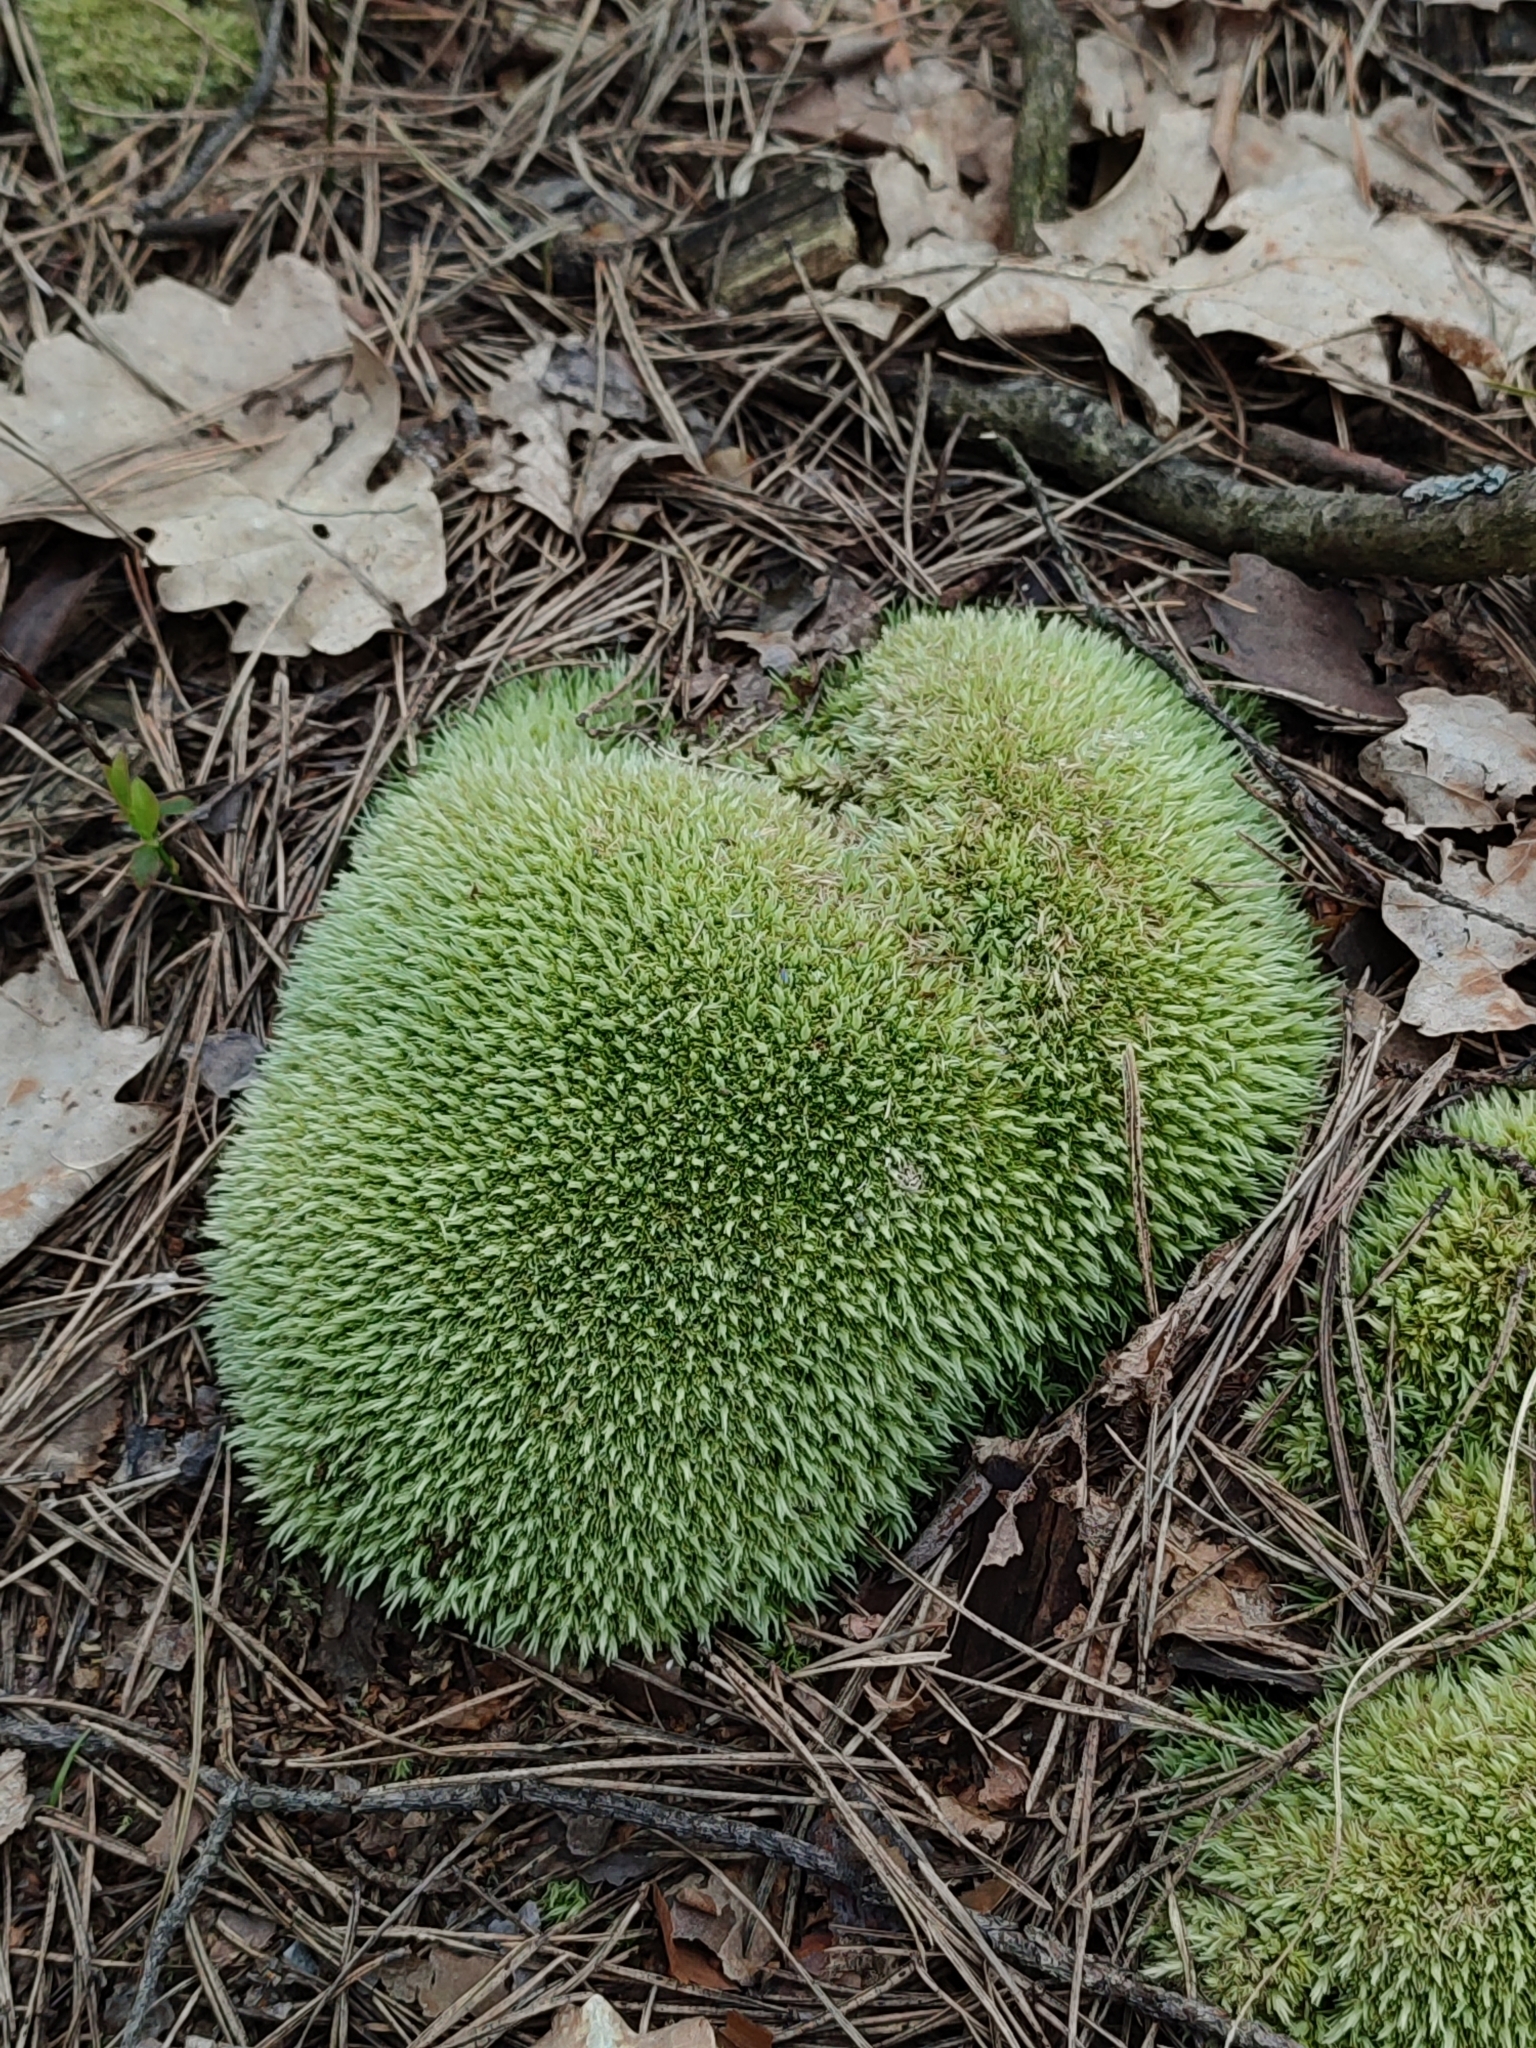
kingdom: Plantae
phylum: Bryophyta
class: Bryopsida
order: Dicranales
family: Leucobryaceae
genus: Leucobryum
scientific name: Leucobryum glaucum
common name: Large white-moss
